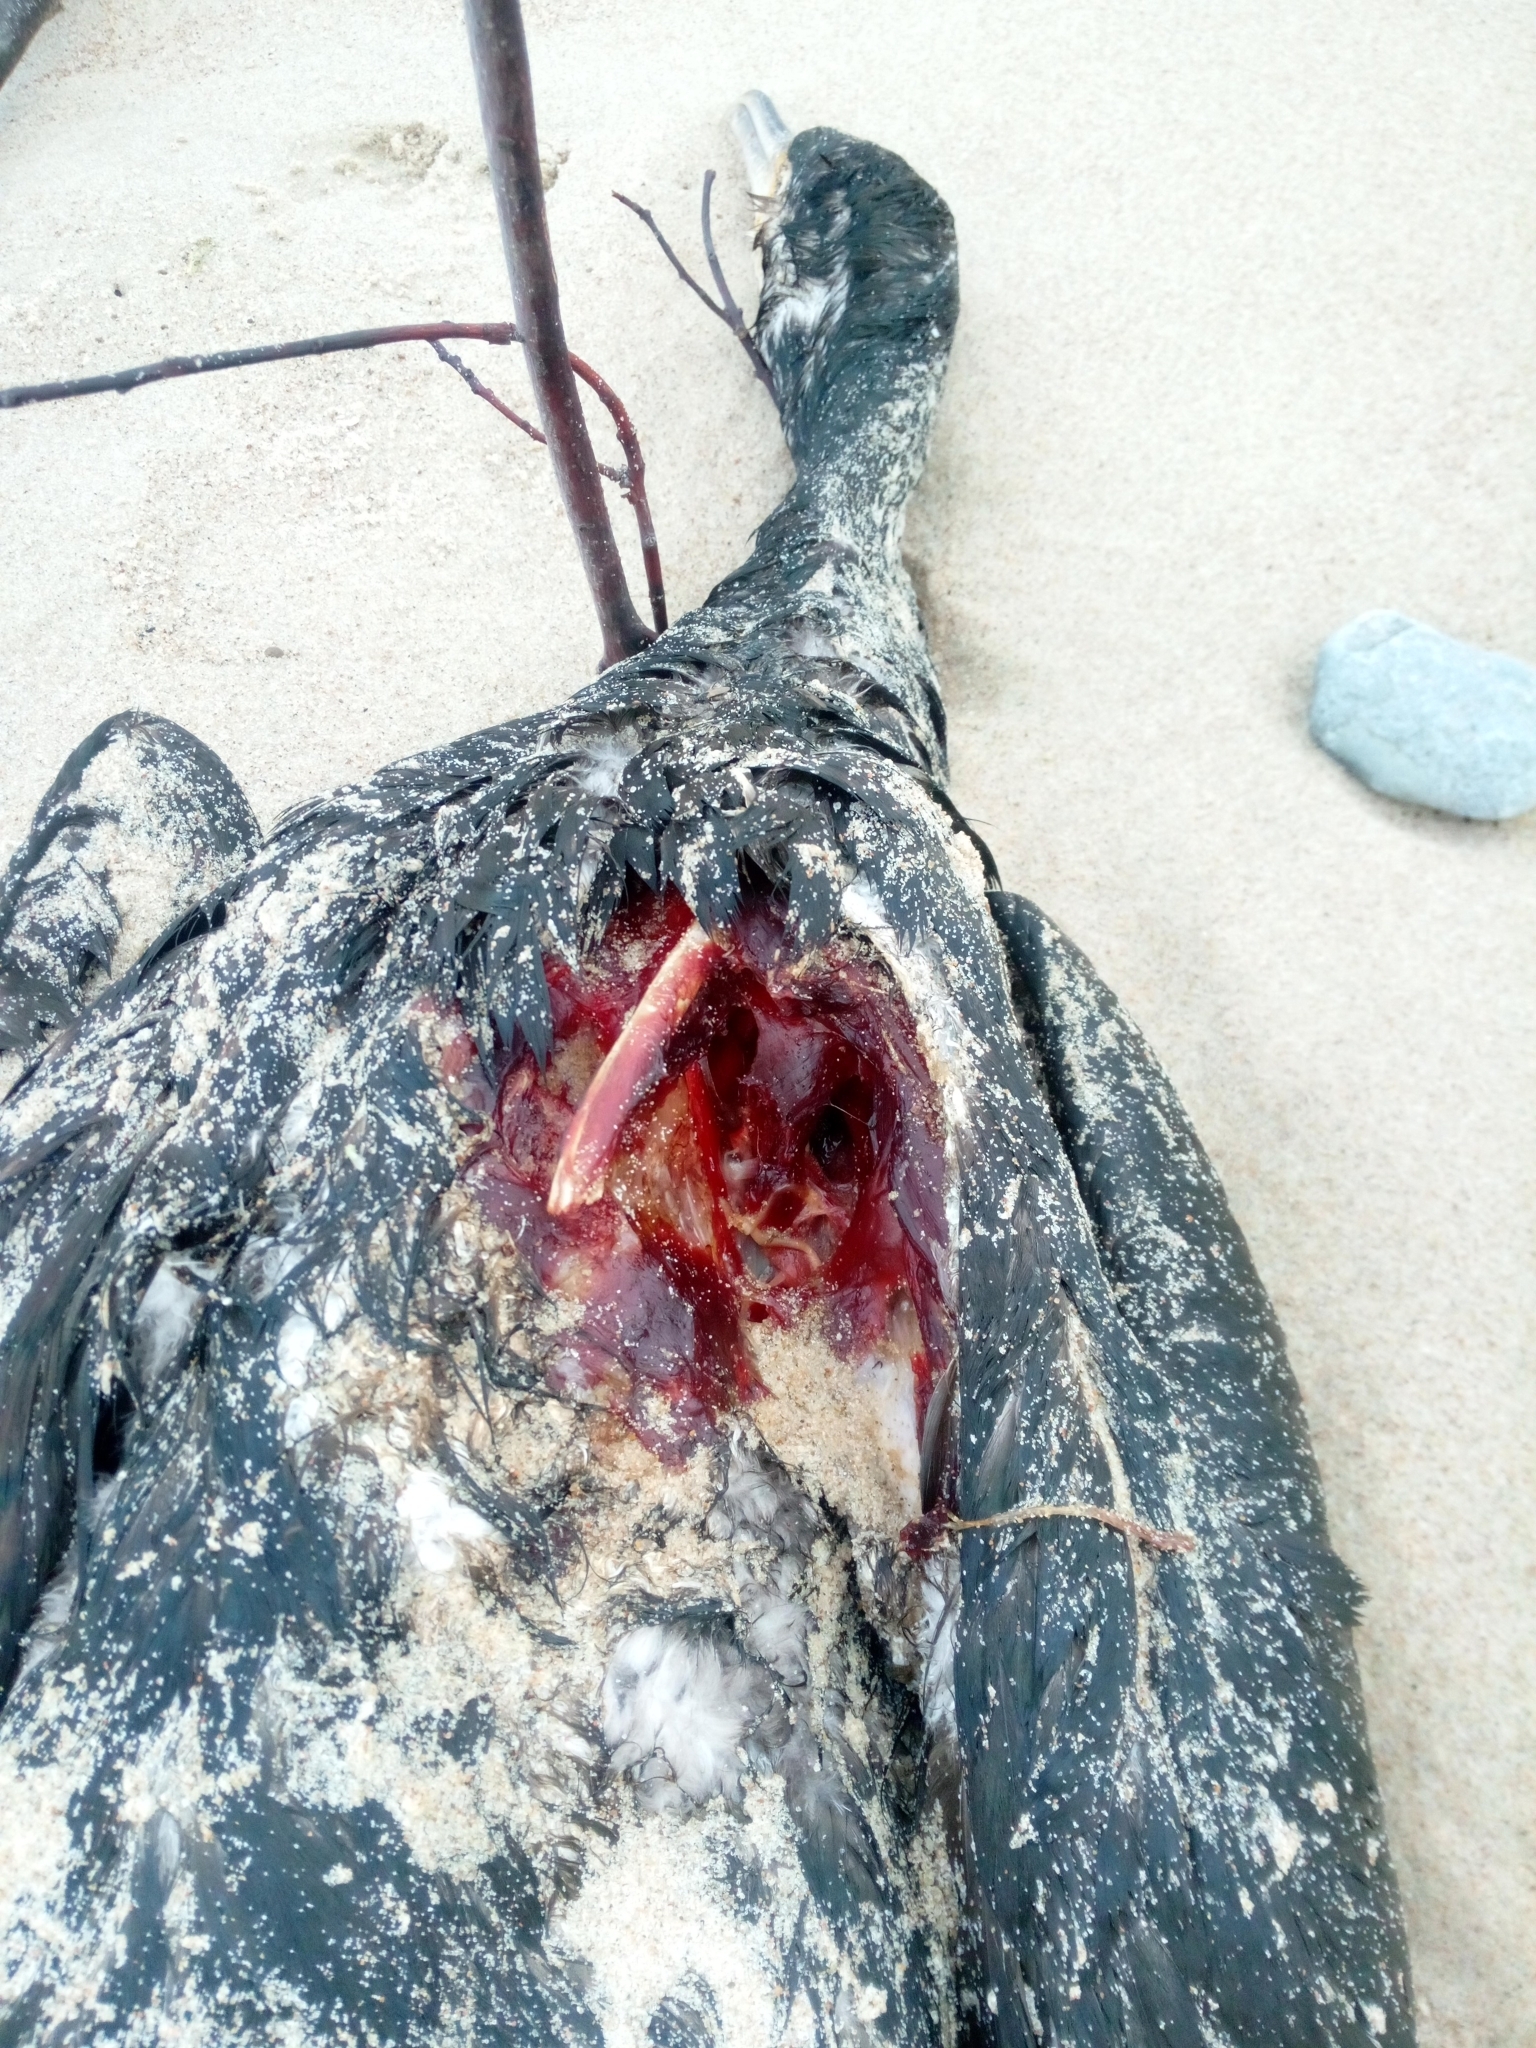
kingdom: Animalia
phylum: Chordata
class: Aves
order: Suliformes
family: Phalacrocoracidae
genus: Phalacrocorax
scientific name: Phalacrocorax carbo
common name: Great cormorant
